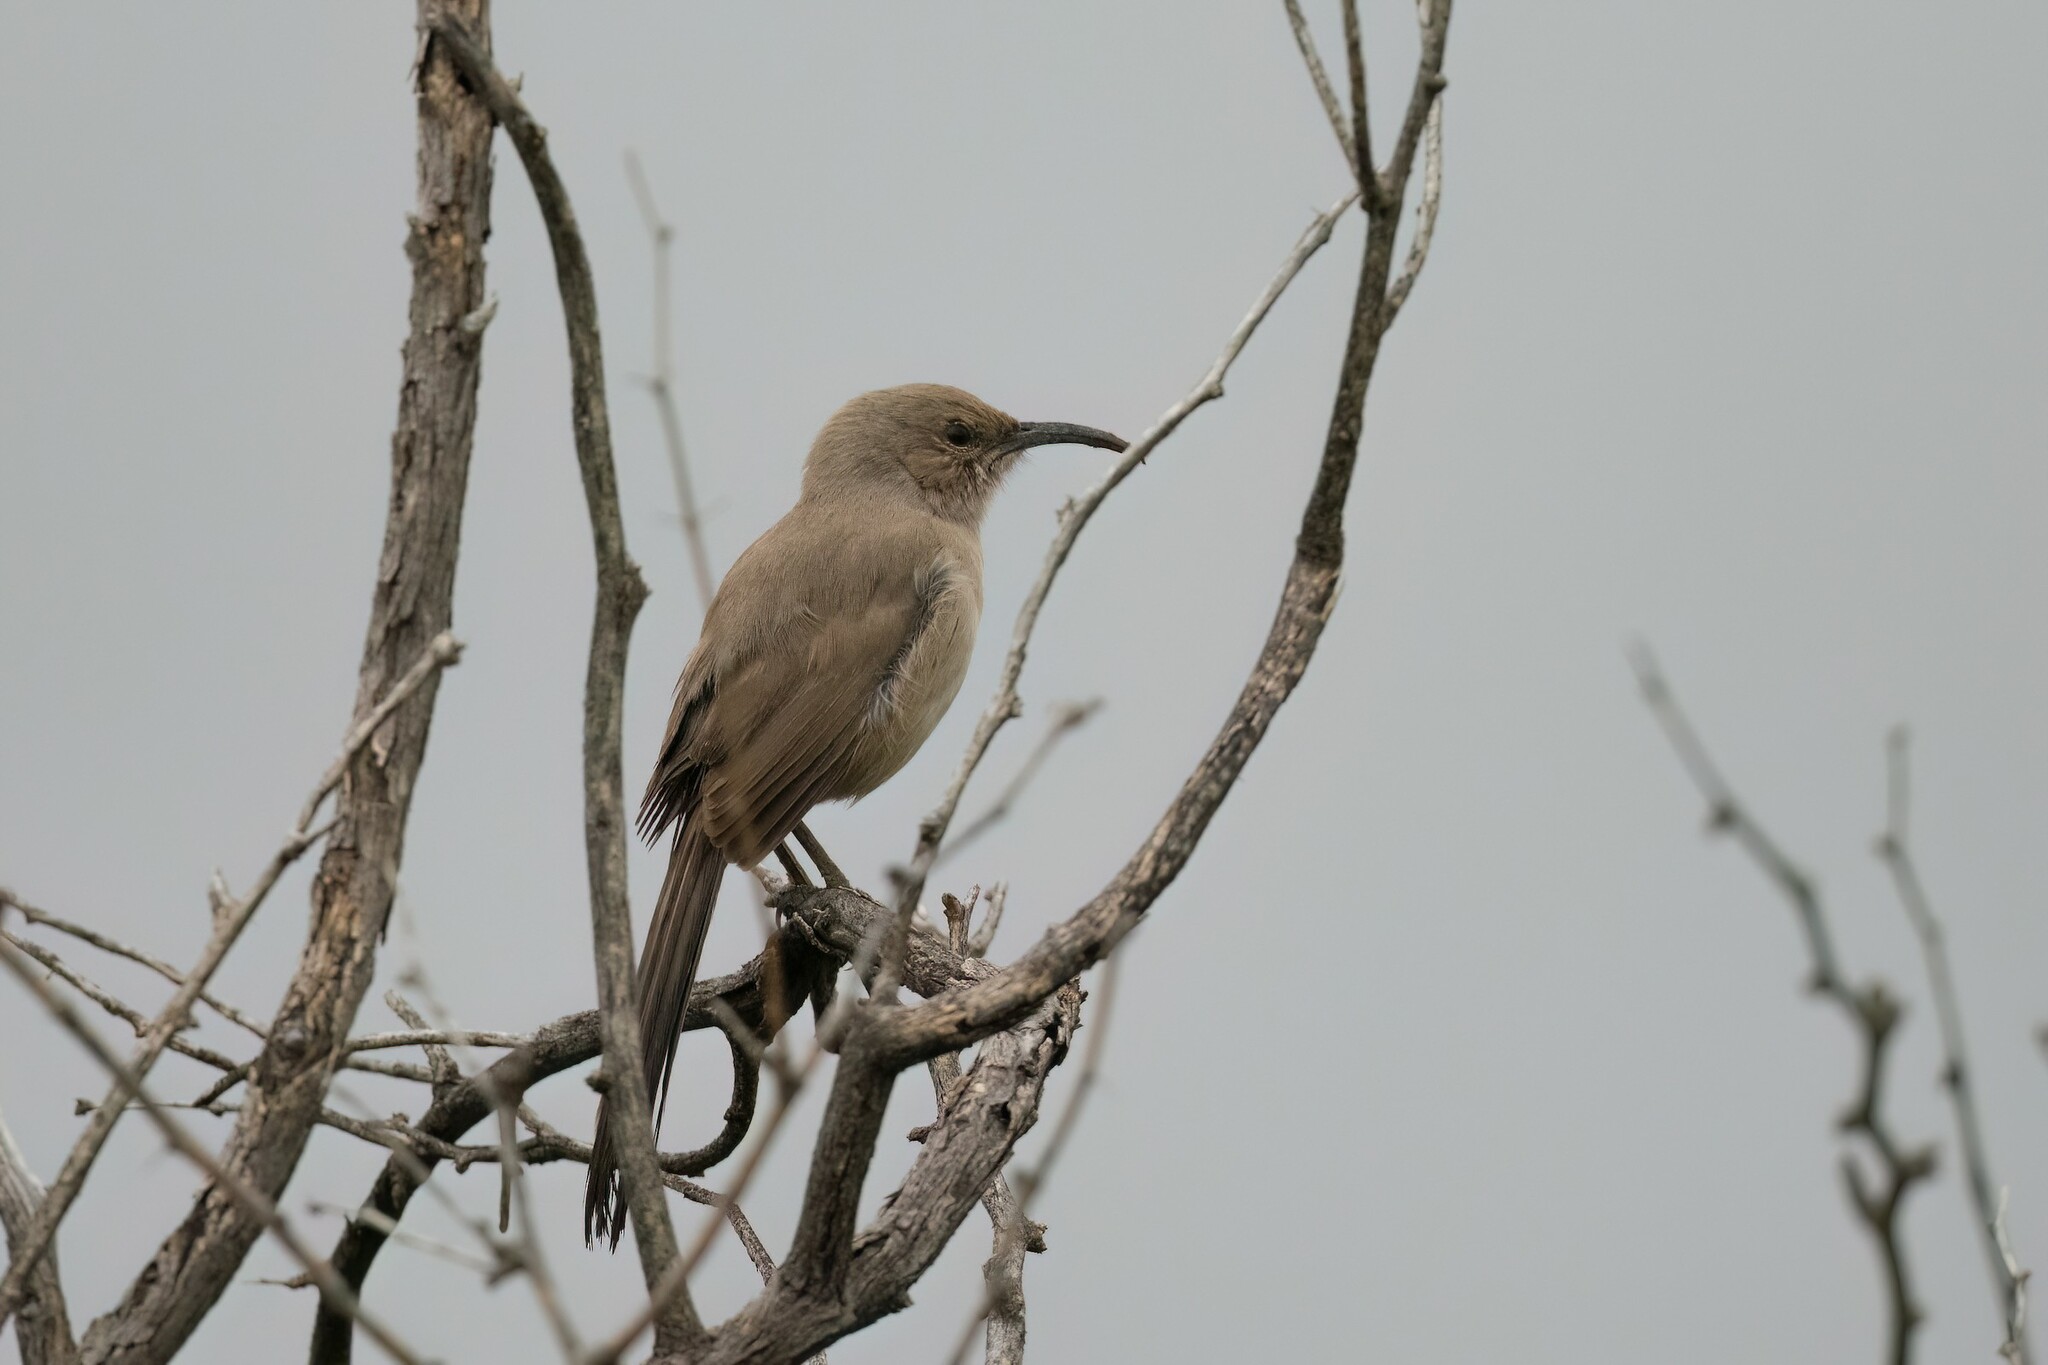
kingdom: Animalia
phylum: Chordata
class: Aves
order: Passeriformes
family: Mimidae
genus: Toxostoma
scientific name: Toxostoma lecontei
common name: Le conte's thrasher
